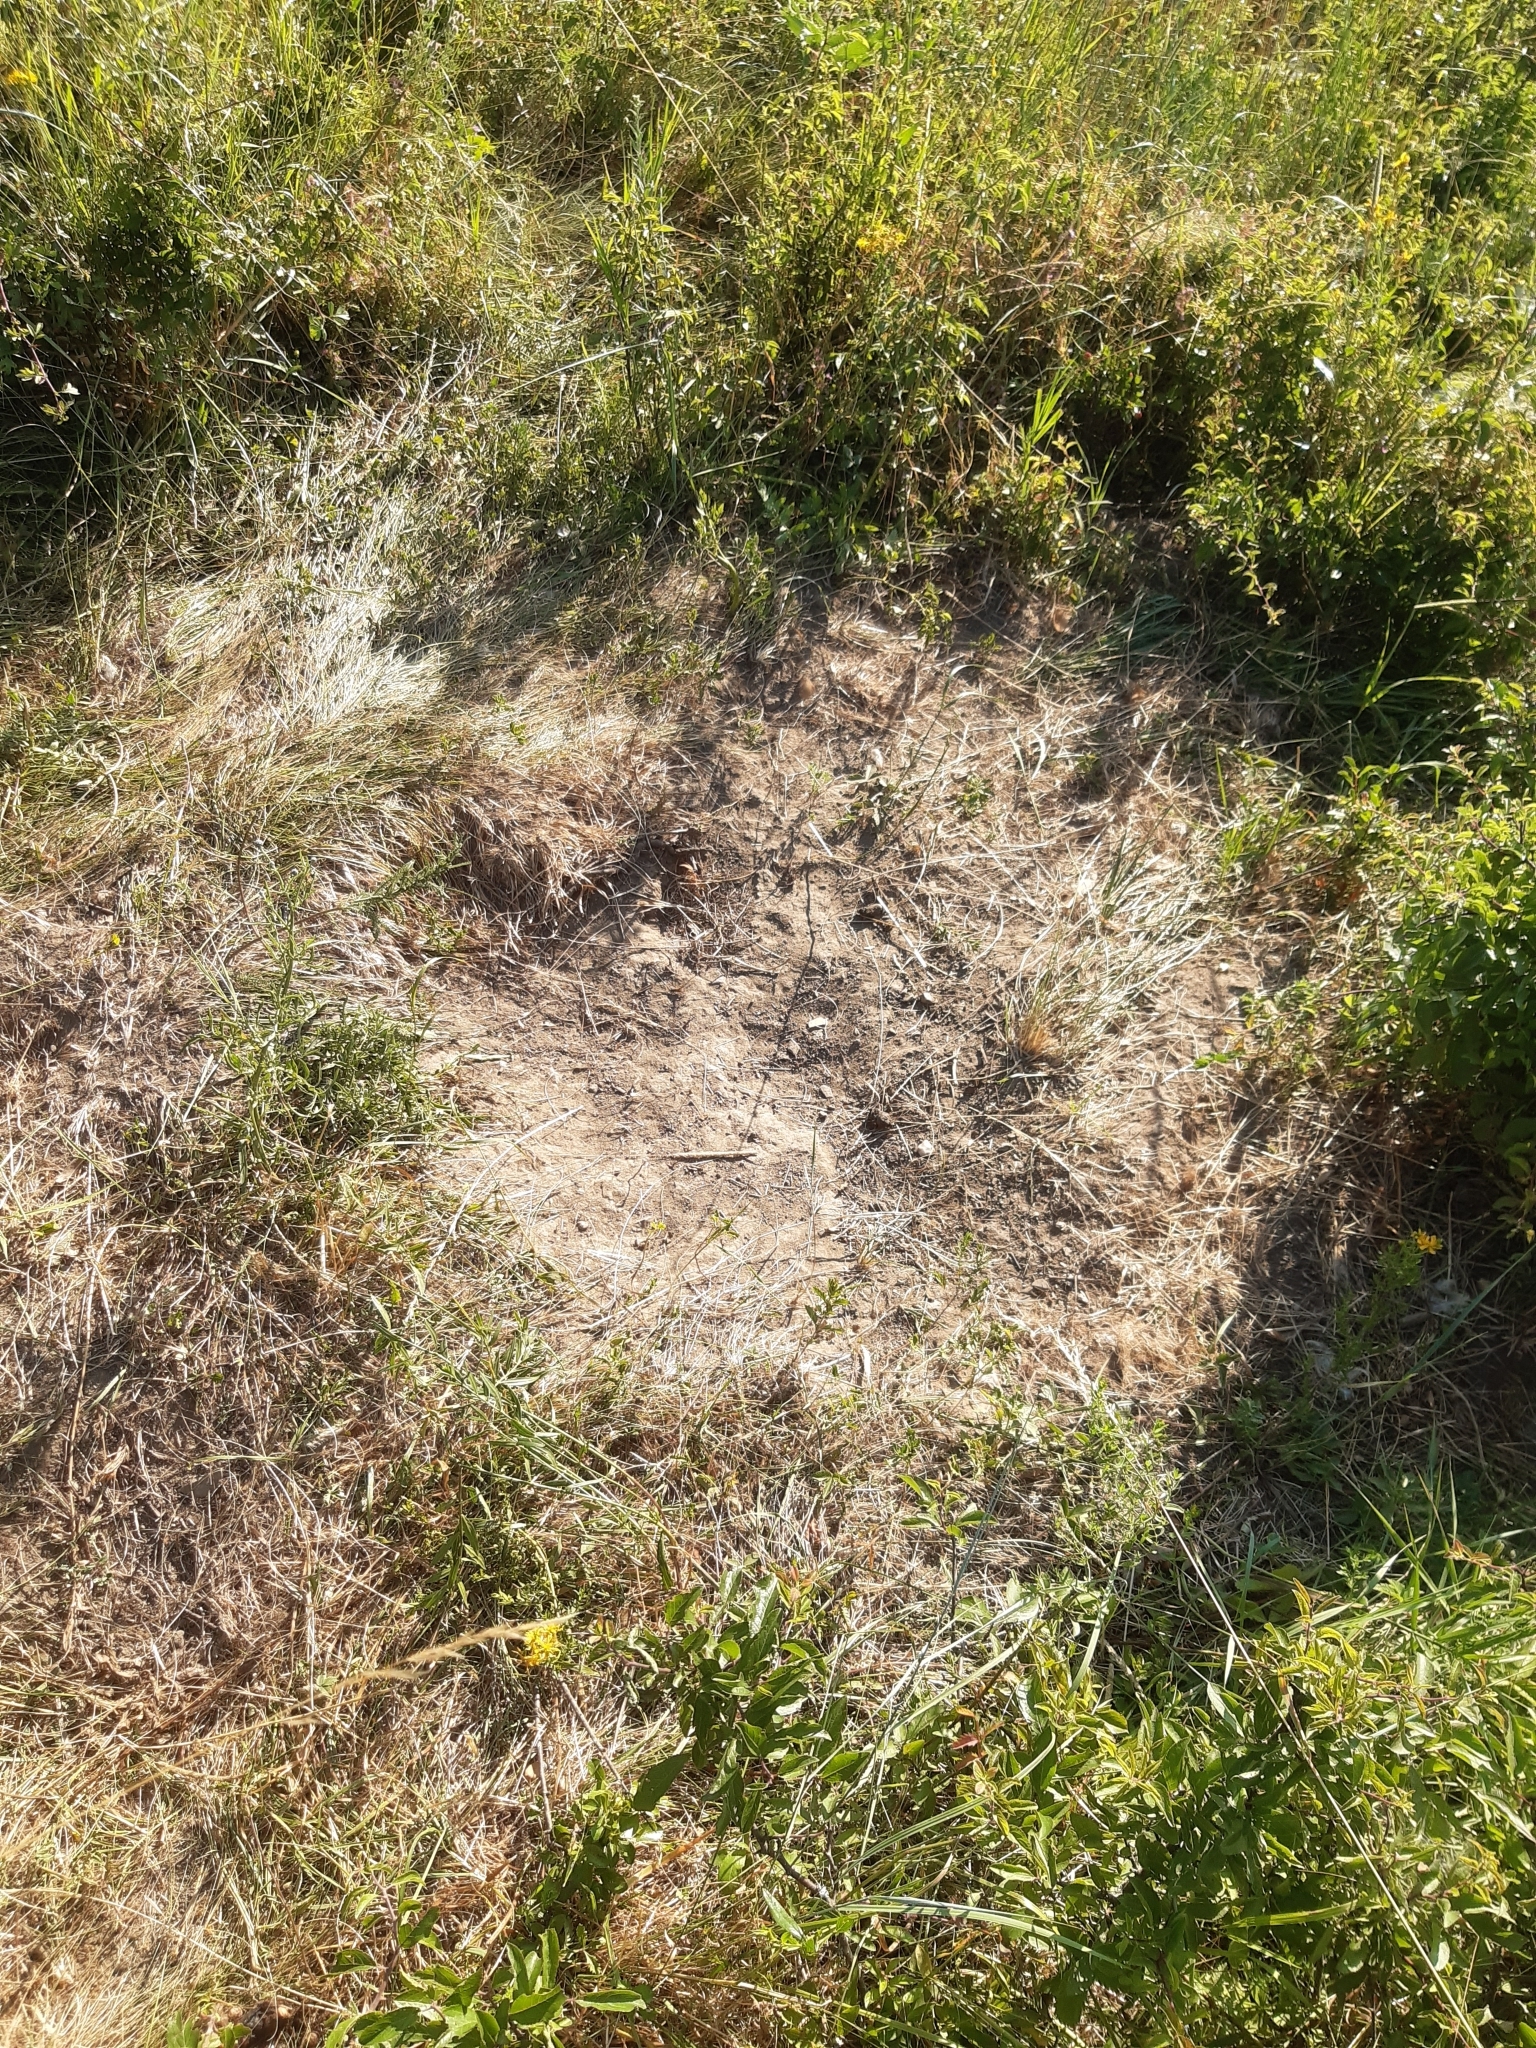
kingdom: Animalia
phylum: Chordata
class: Aves
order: Galliformes
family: Phasianidae
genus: Gallus
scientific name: Gallus gallus
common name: Red junglefowl
